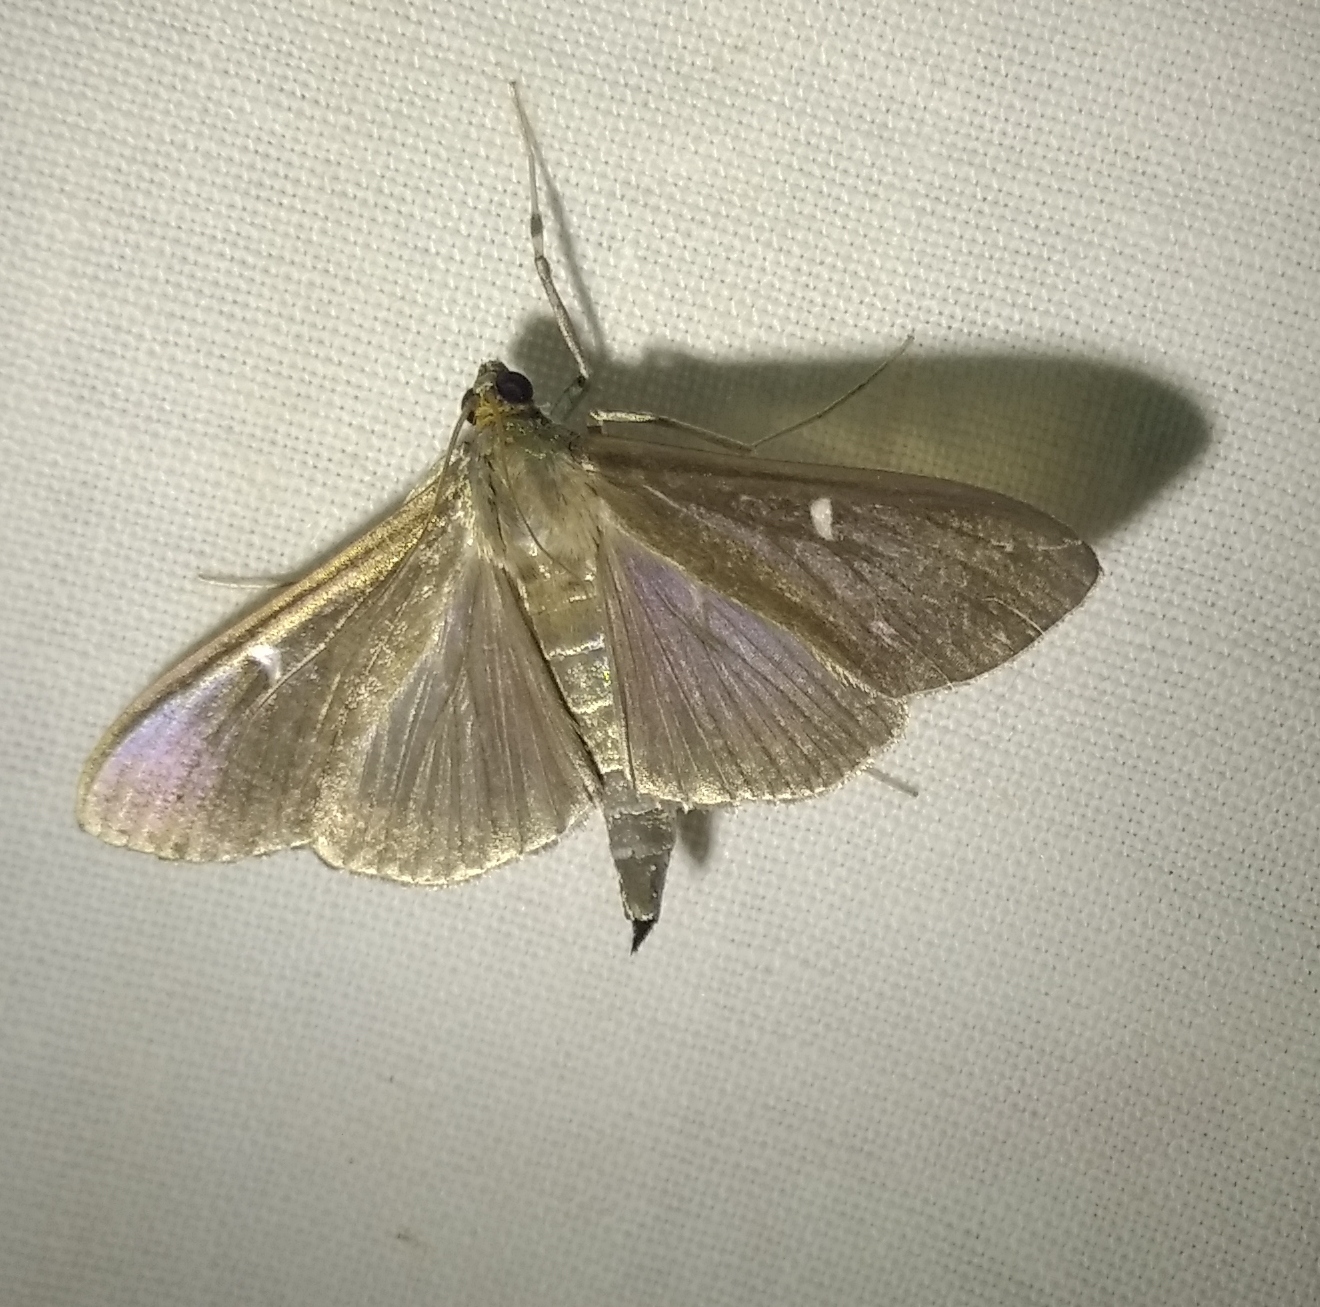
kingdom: Animalia
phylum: Arthropoda
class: Insecta
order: Lepidoptera
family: Crambidae
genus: Cydalima
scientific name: Cydalima perspectalis
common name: Box tree moth
